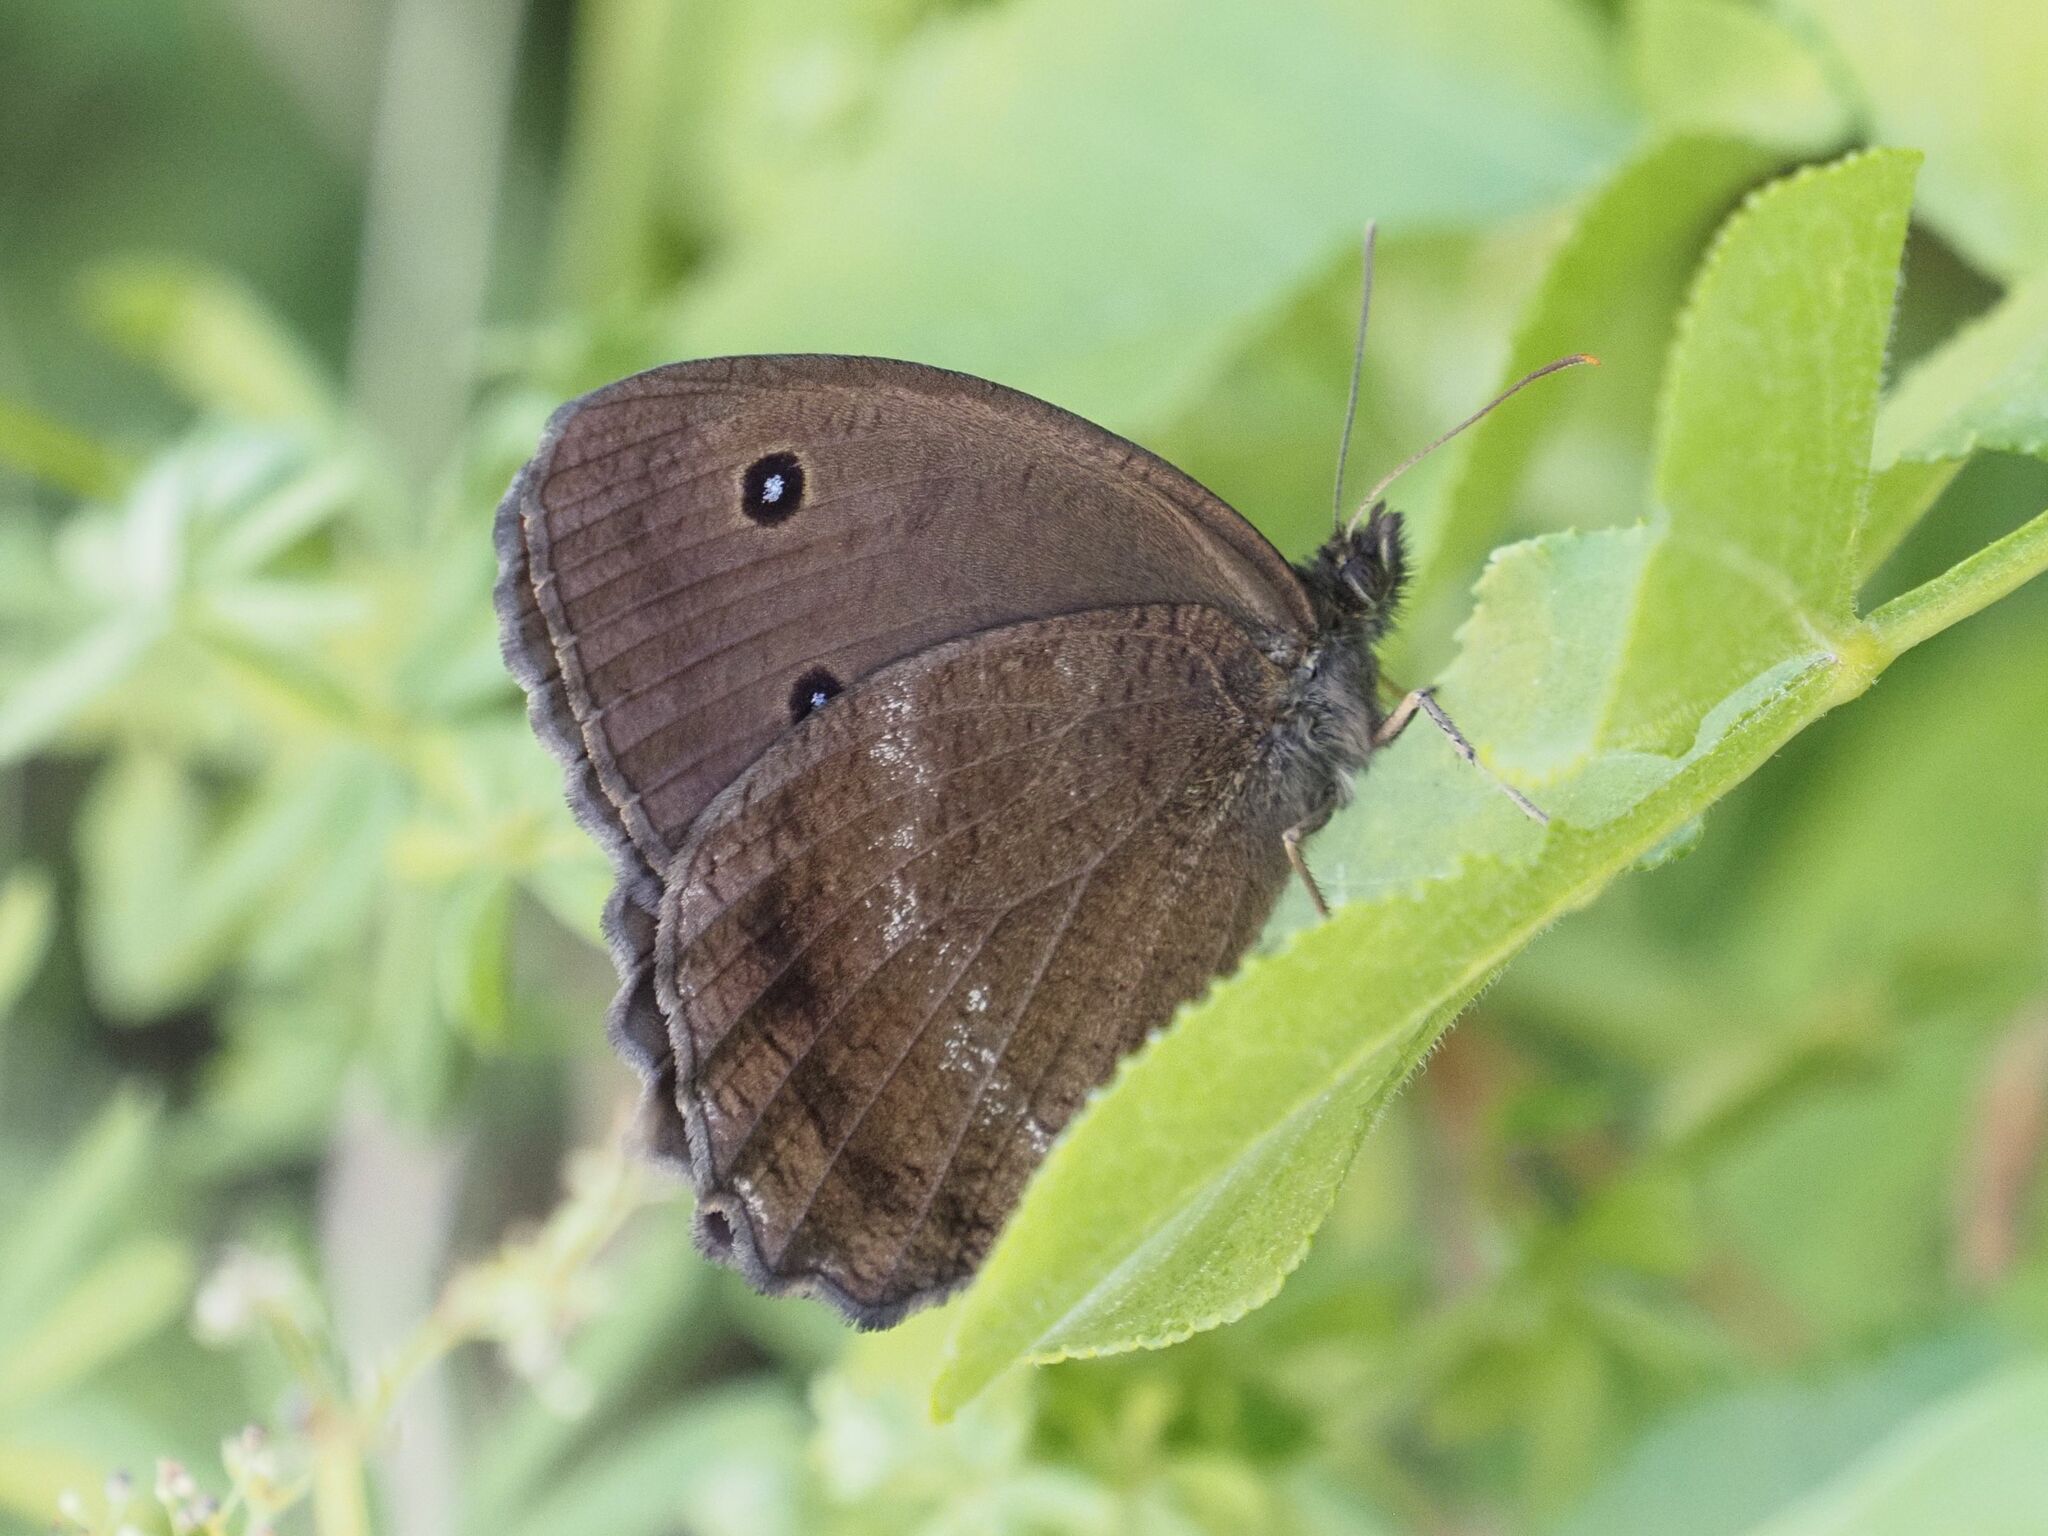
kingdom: Animalia
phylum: Arthropoda
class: Insecta
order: Lepidoptera
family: Nymphalidae
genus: Minois
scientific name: Minois dryas
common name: Dryad
